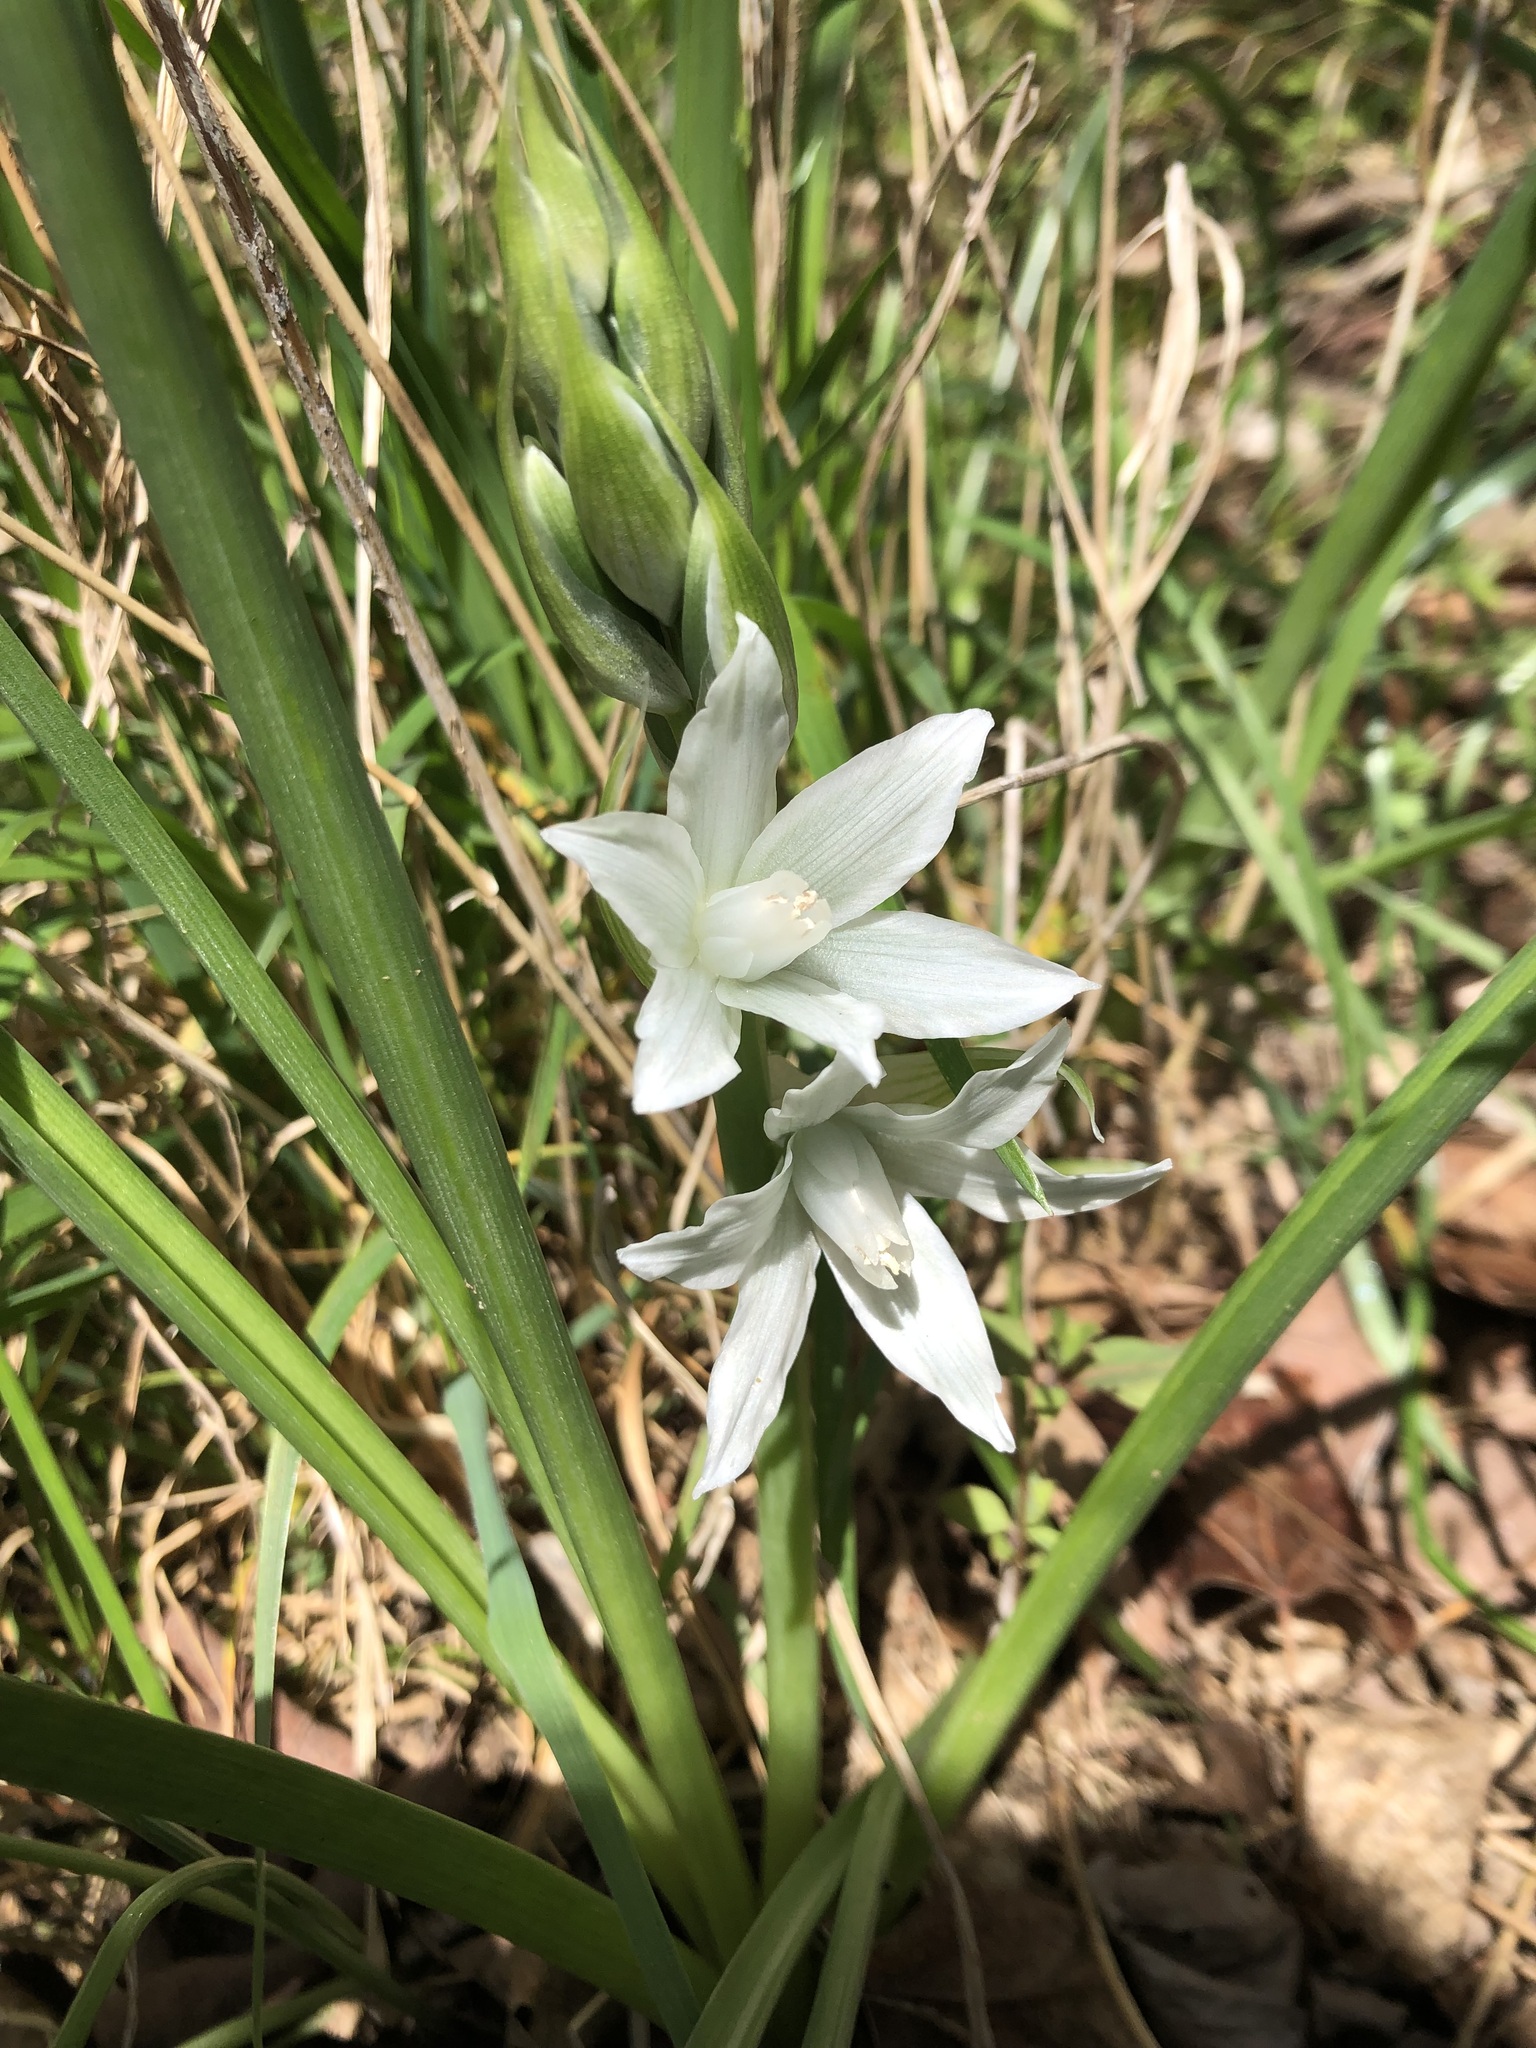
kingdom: Plantae
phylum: Tracheophyta
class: Liliopsida
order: Asparagales
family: Asparagaceae
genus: Ornithogalum
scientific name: Ornithogalum nutans
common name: Drooping star-of-bethlehem
